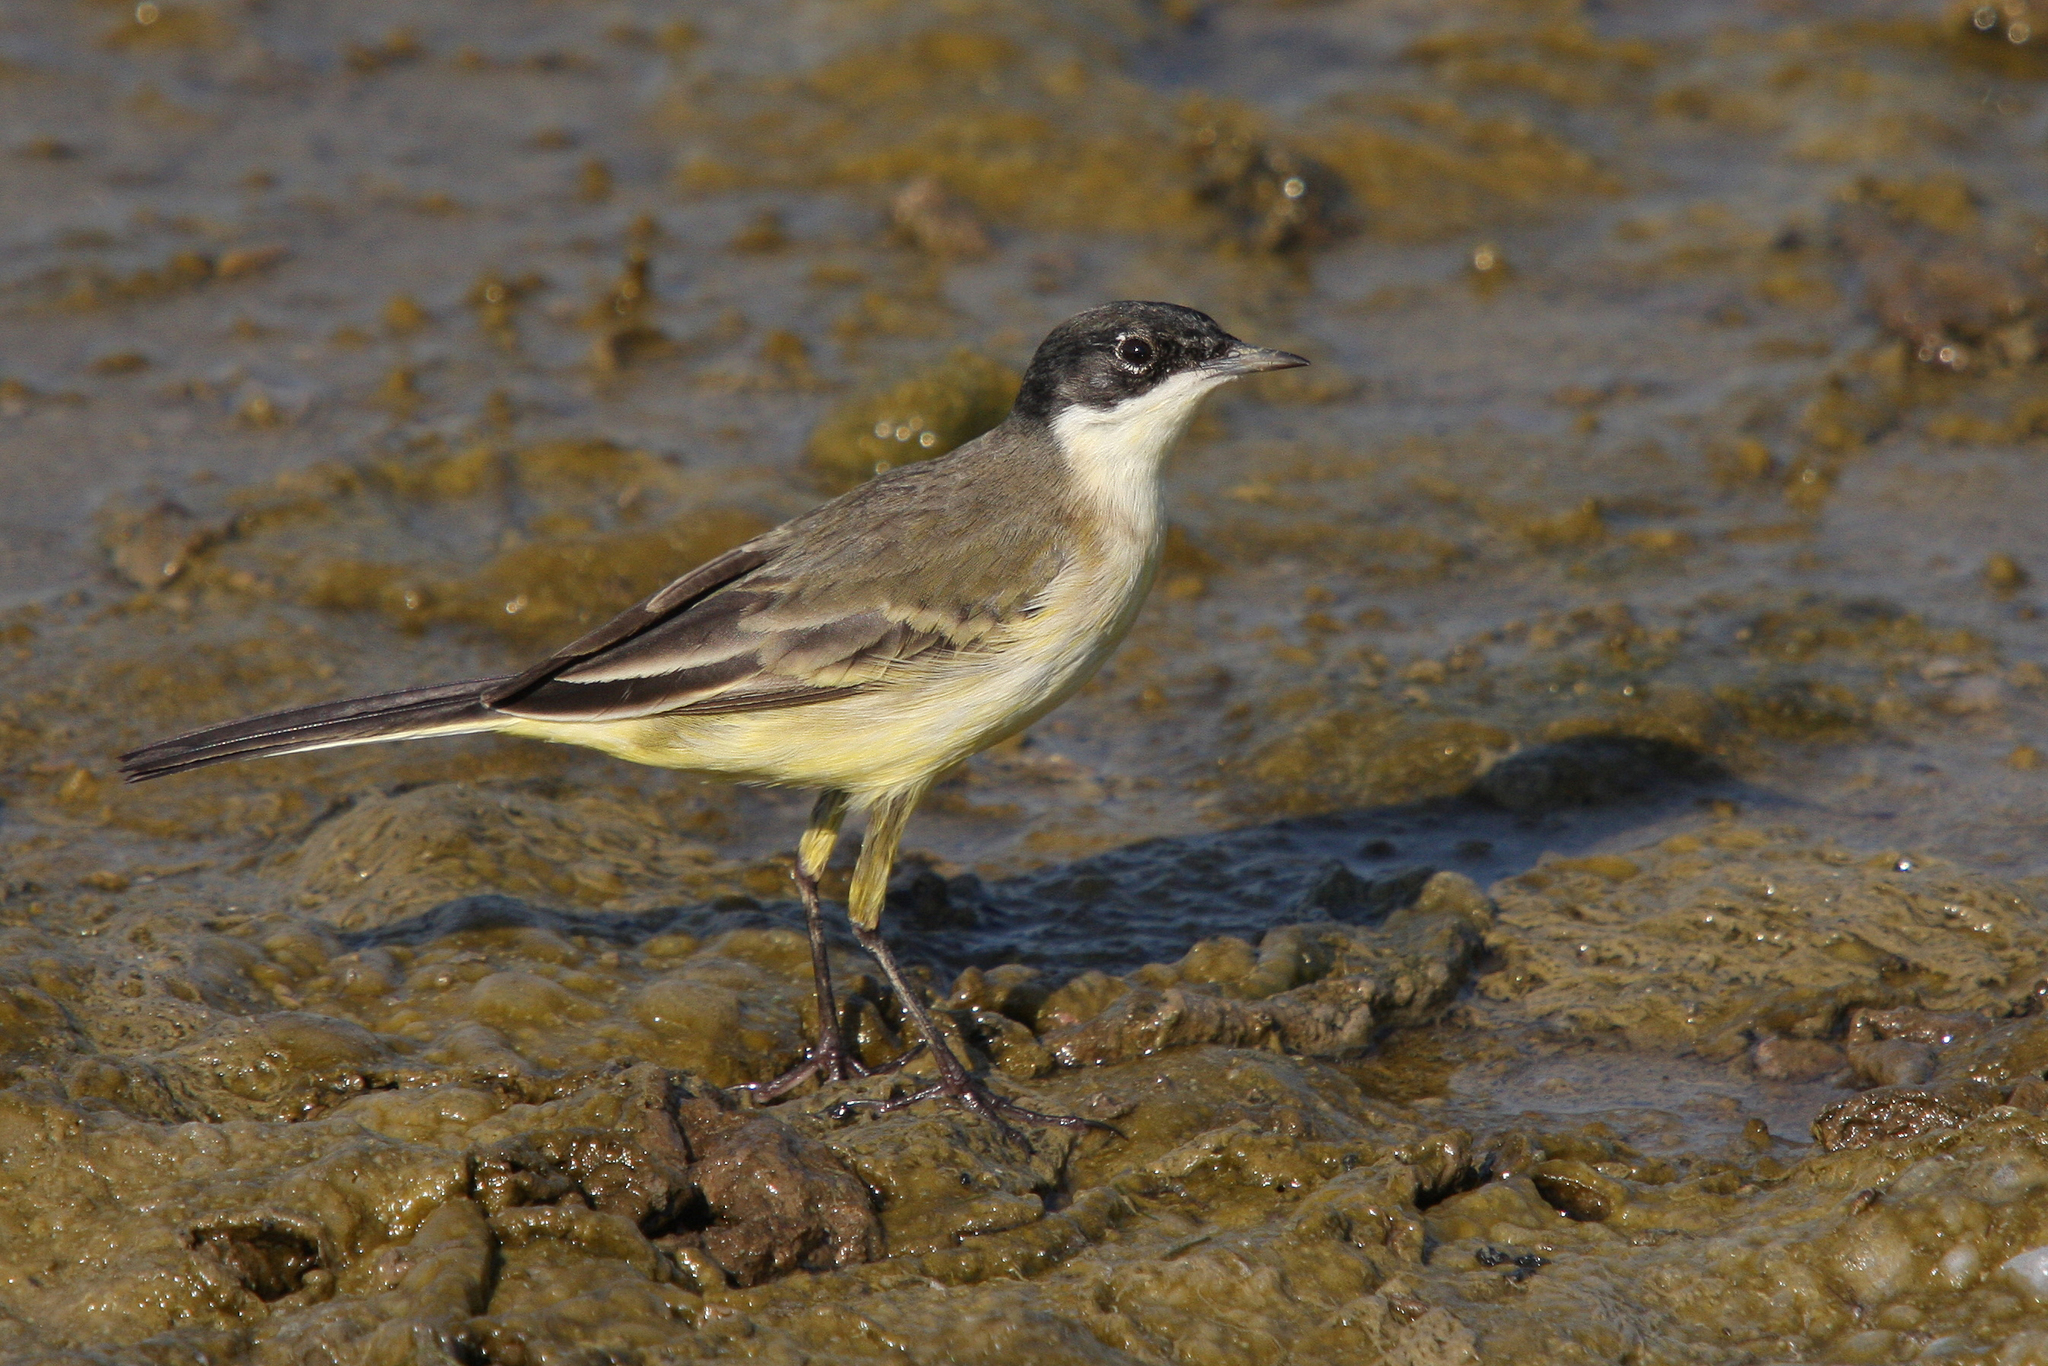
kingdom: Animalia
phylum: Chordata
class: Aves
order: Passeriformes
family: Motacillidae
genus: Motacilla
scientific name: Motacilla flava
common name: Western yellow wagtail
